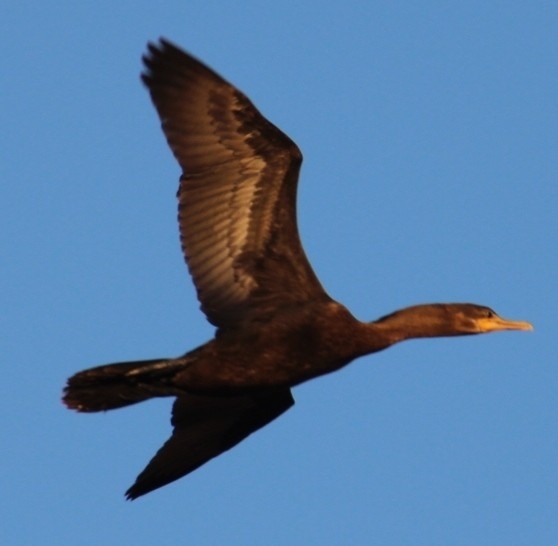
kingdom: Animalia
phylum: Chordata
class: Aves
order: Suliformes
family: Phalacrocoracidae
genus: Phalacrocorax
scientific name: Phalacrocorax auritus
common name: Double-crested cormorant
